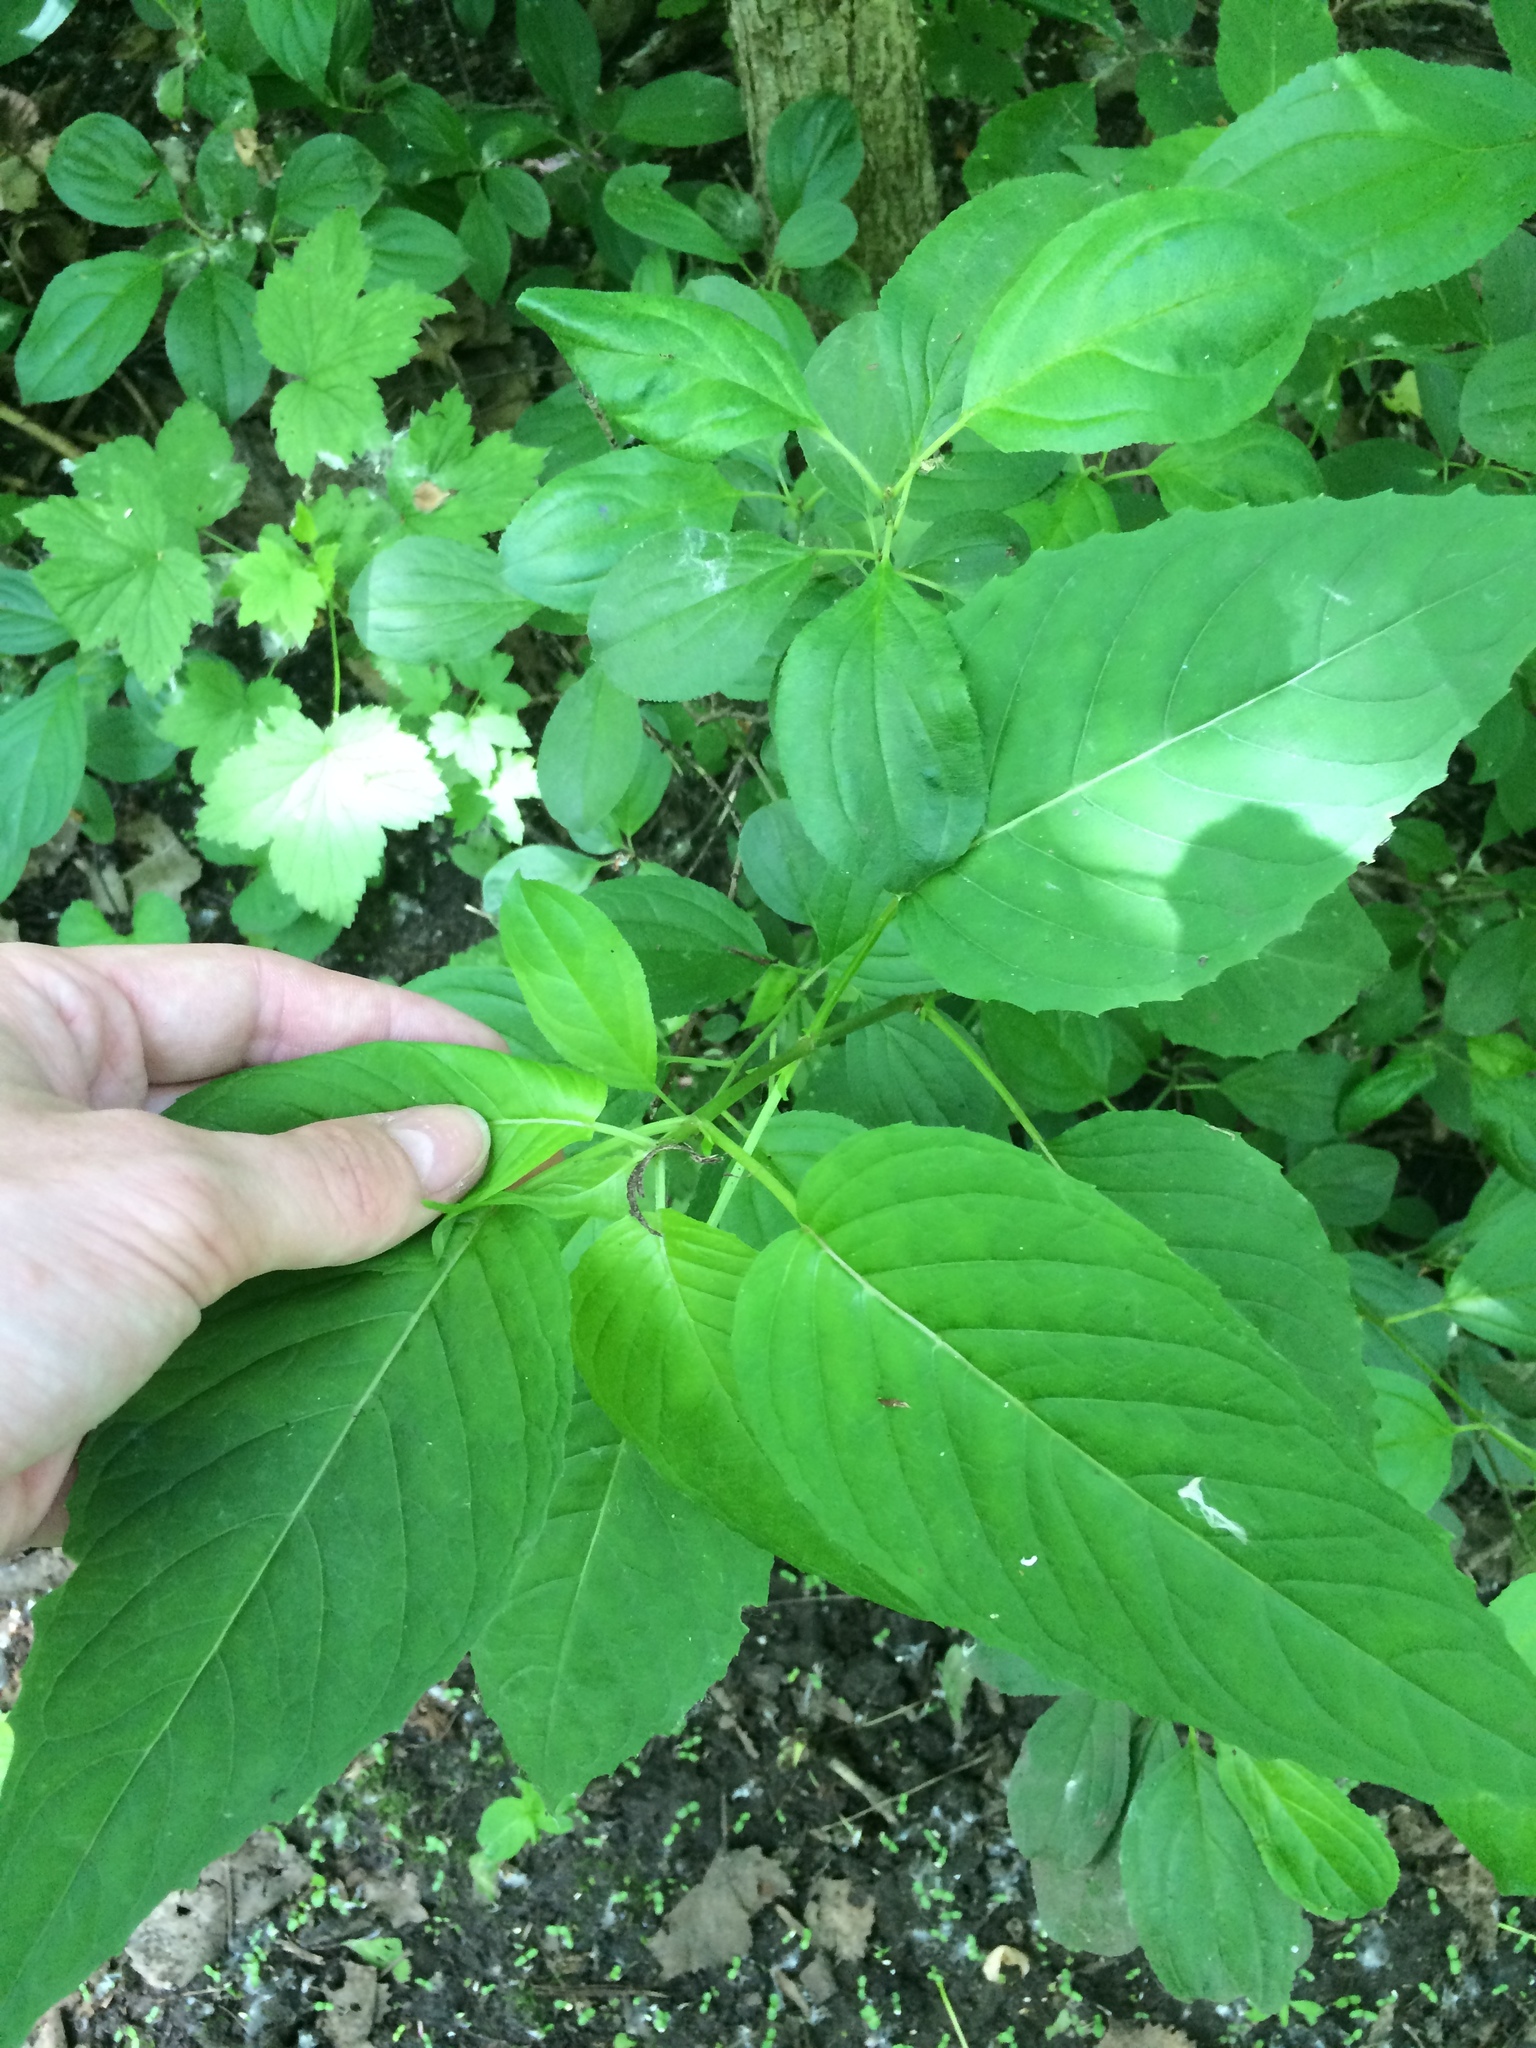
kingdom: Plantae
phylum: Tracheophyta
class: Magnoliopsida
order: Myrtales
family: Onagraceae
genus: Circaea
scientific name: Circaea canadensis
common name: Broad-leaved enchanter's nightshade
